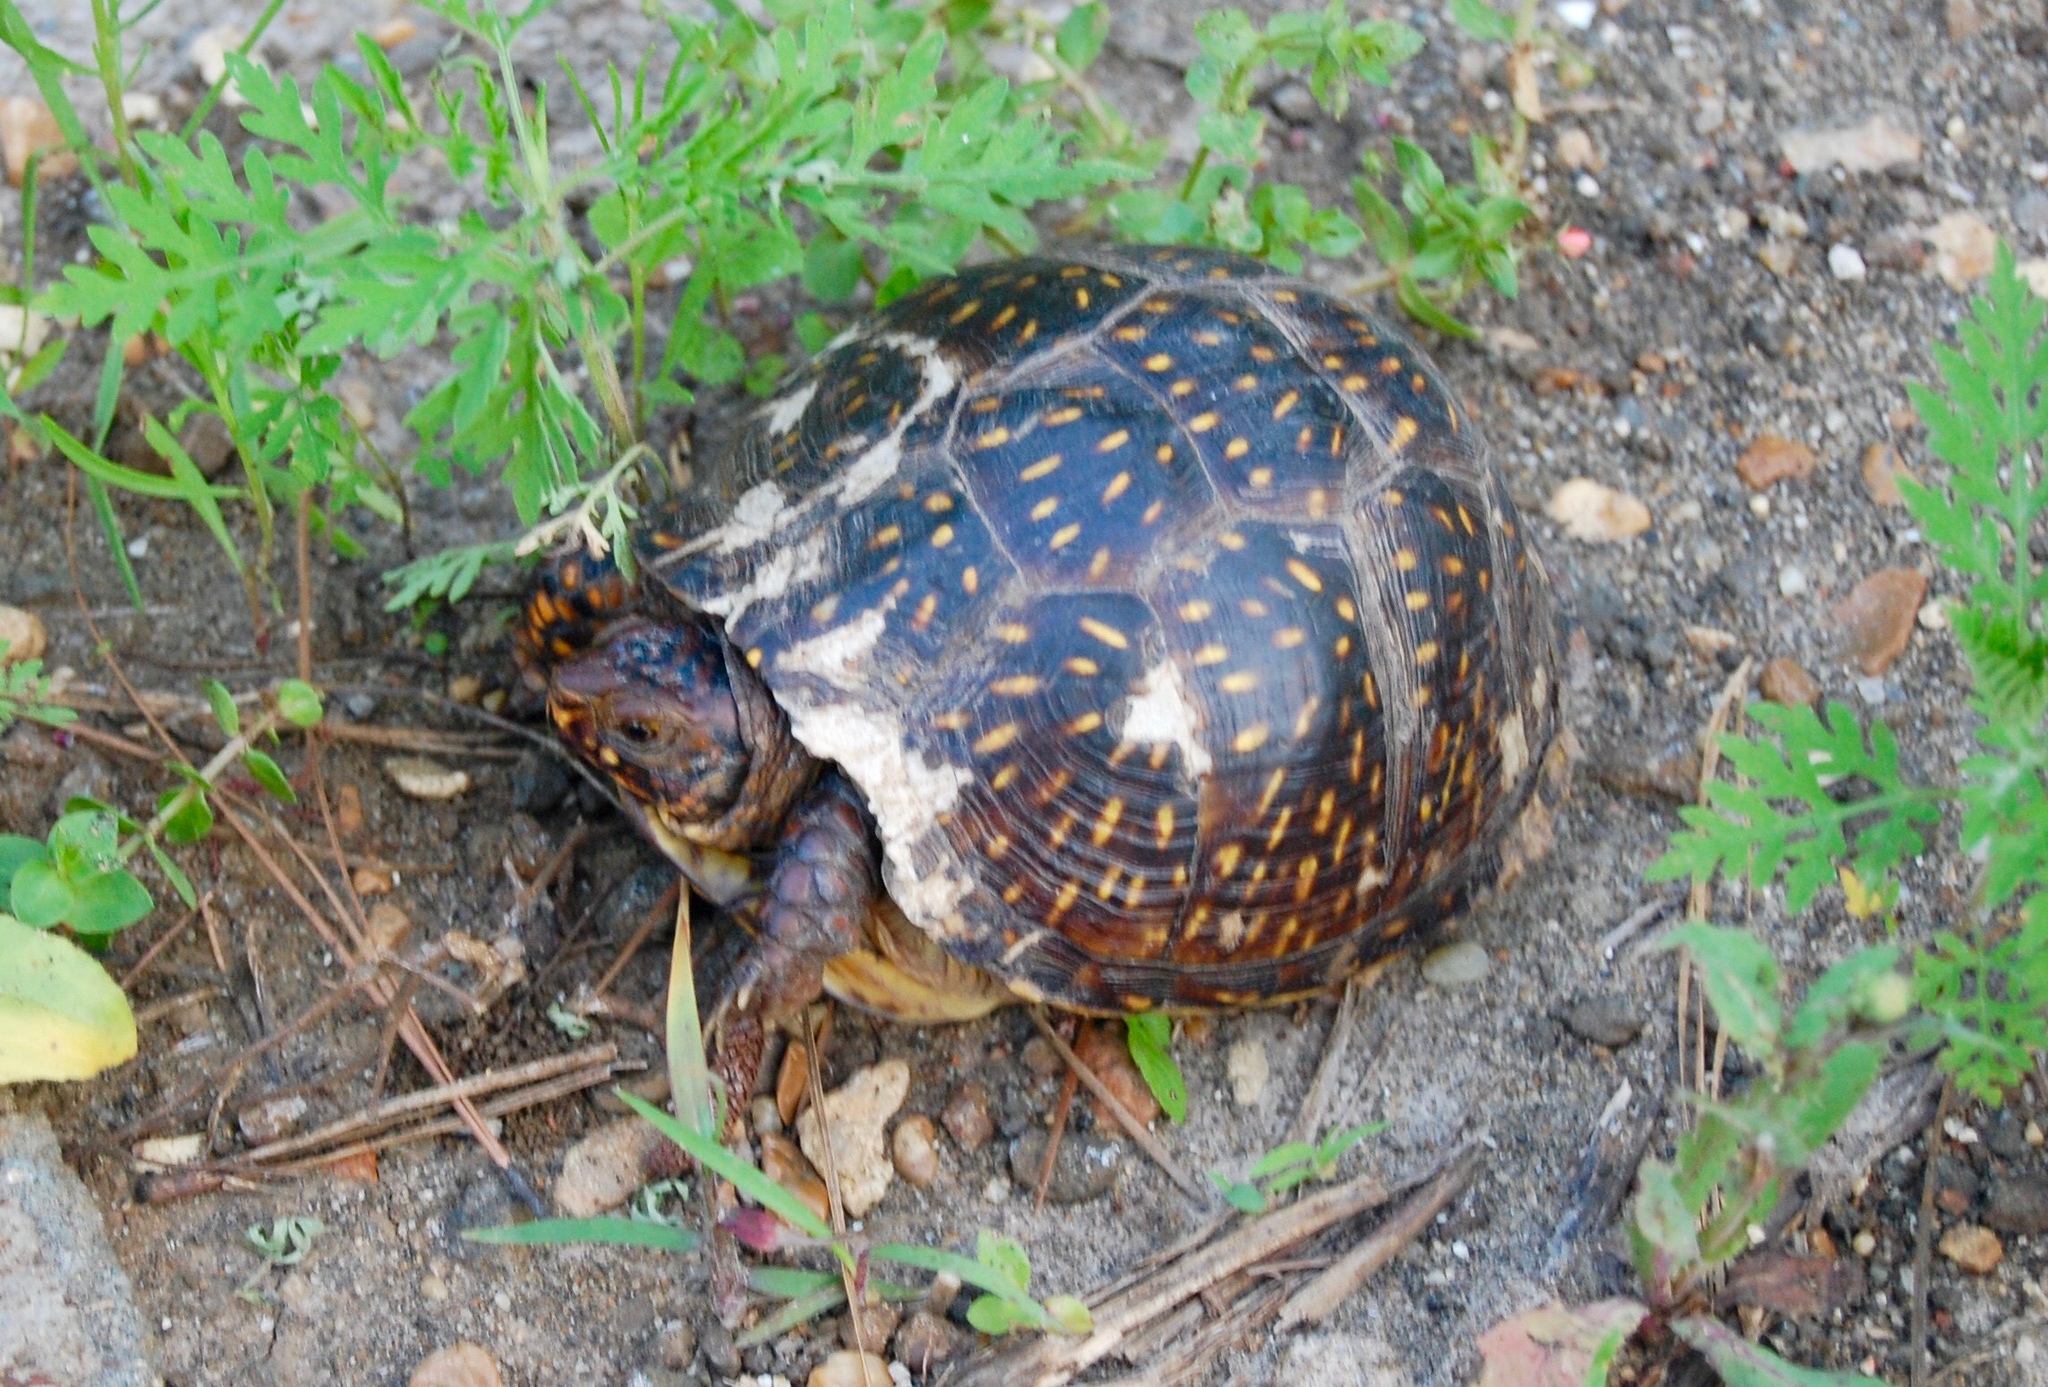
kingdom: Animalia
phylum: Chordata
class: Testudines
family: Emydidae
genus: Terrapene
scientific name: Terrapene carolina
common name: Common box turtle
